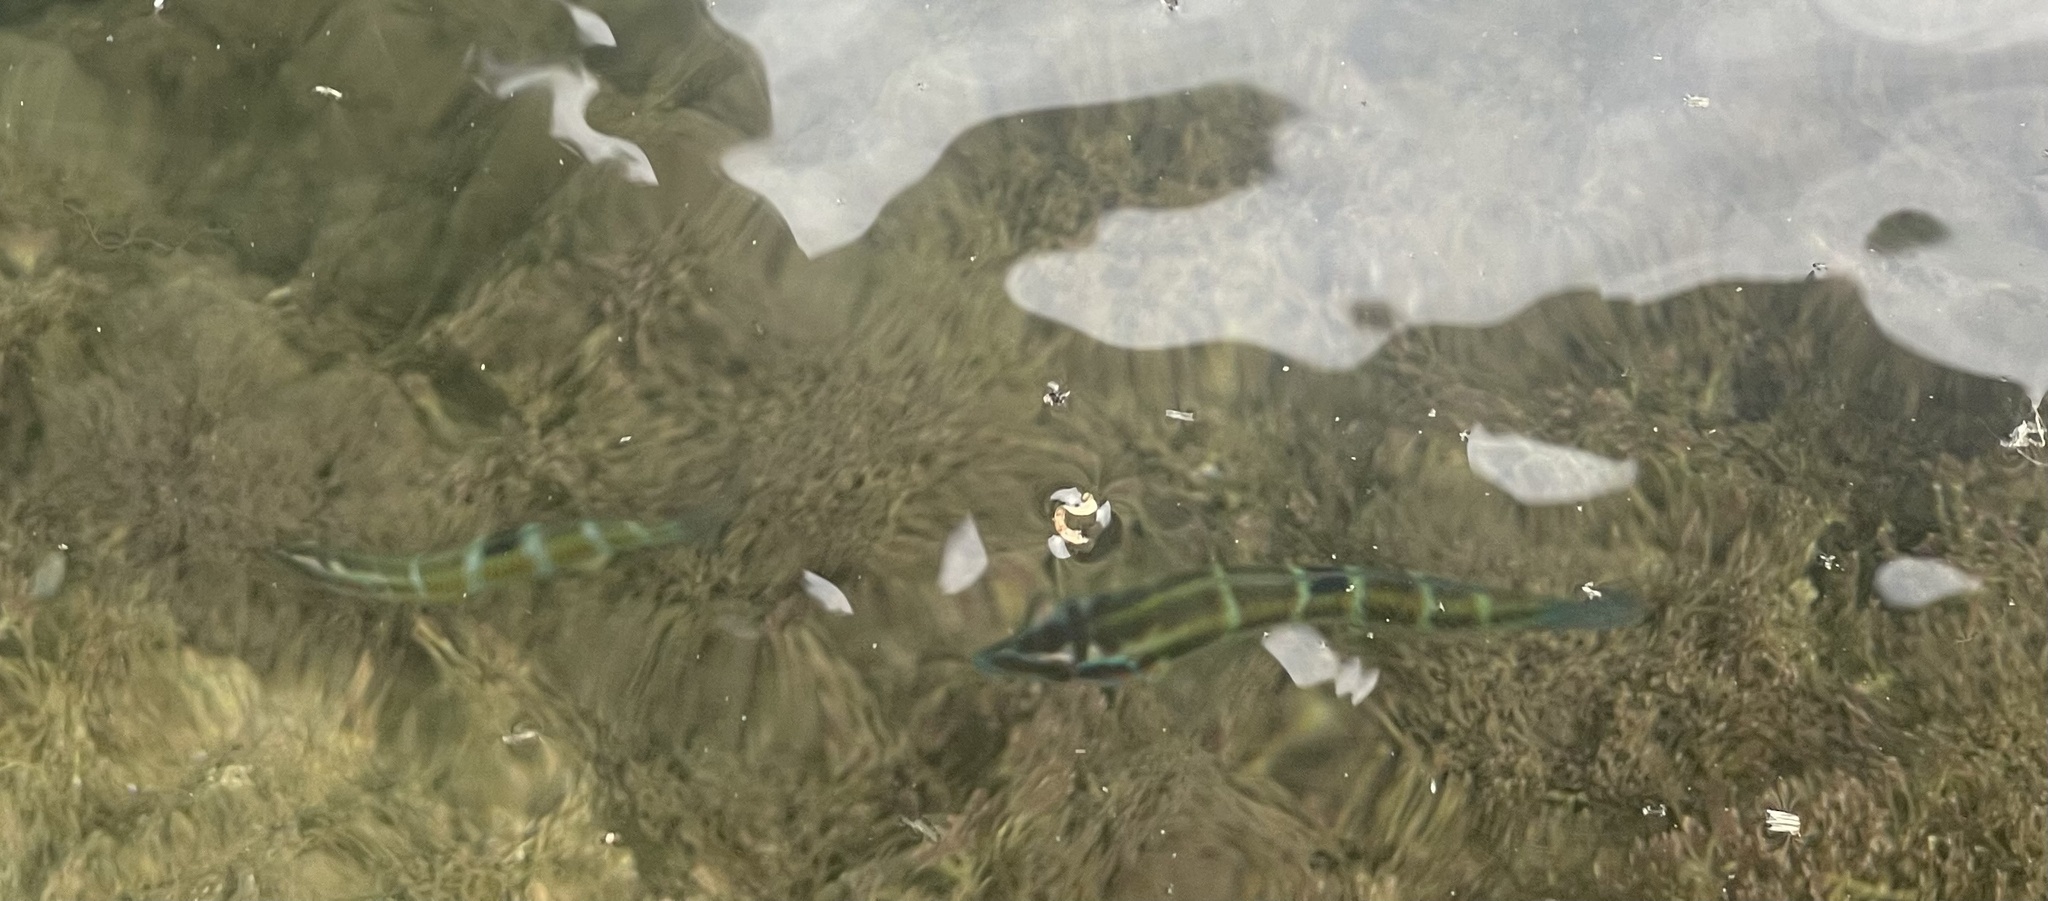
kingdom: Animalia
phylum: Chordata
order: Perciformes
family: Labridae
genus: Thalassoma
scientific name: Thalassoma pavo
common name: Ornate wrasse
